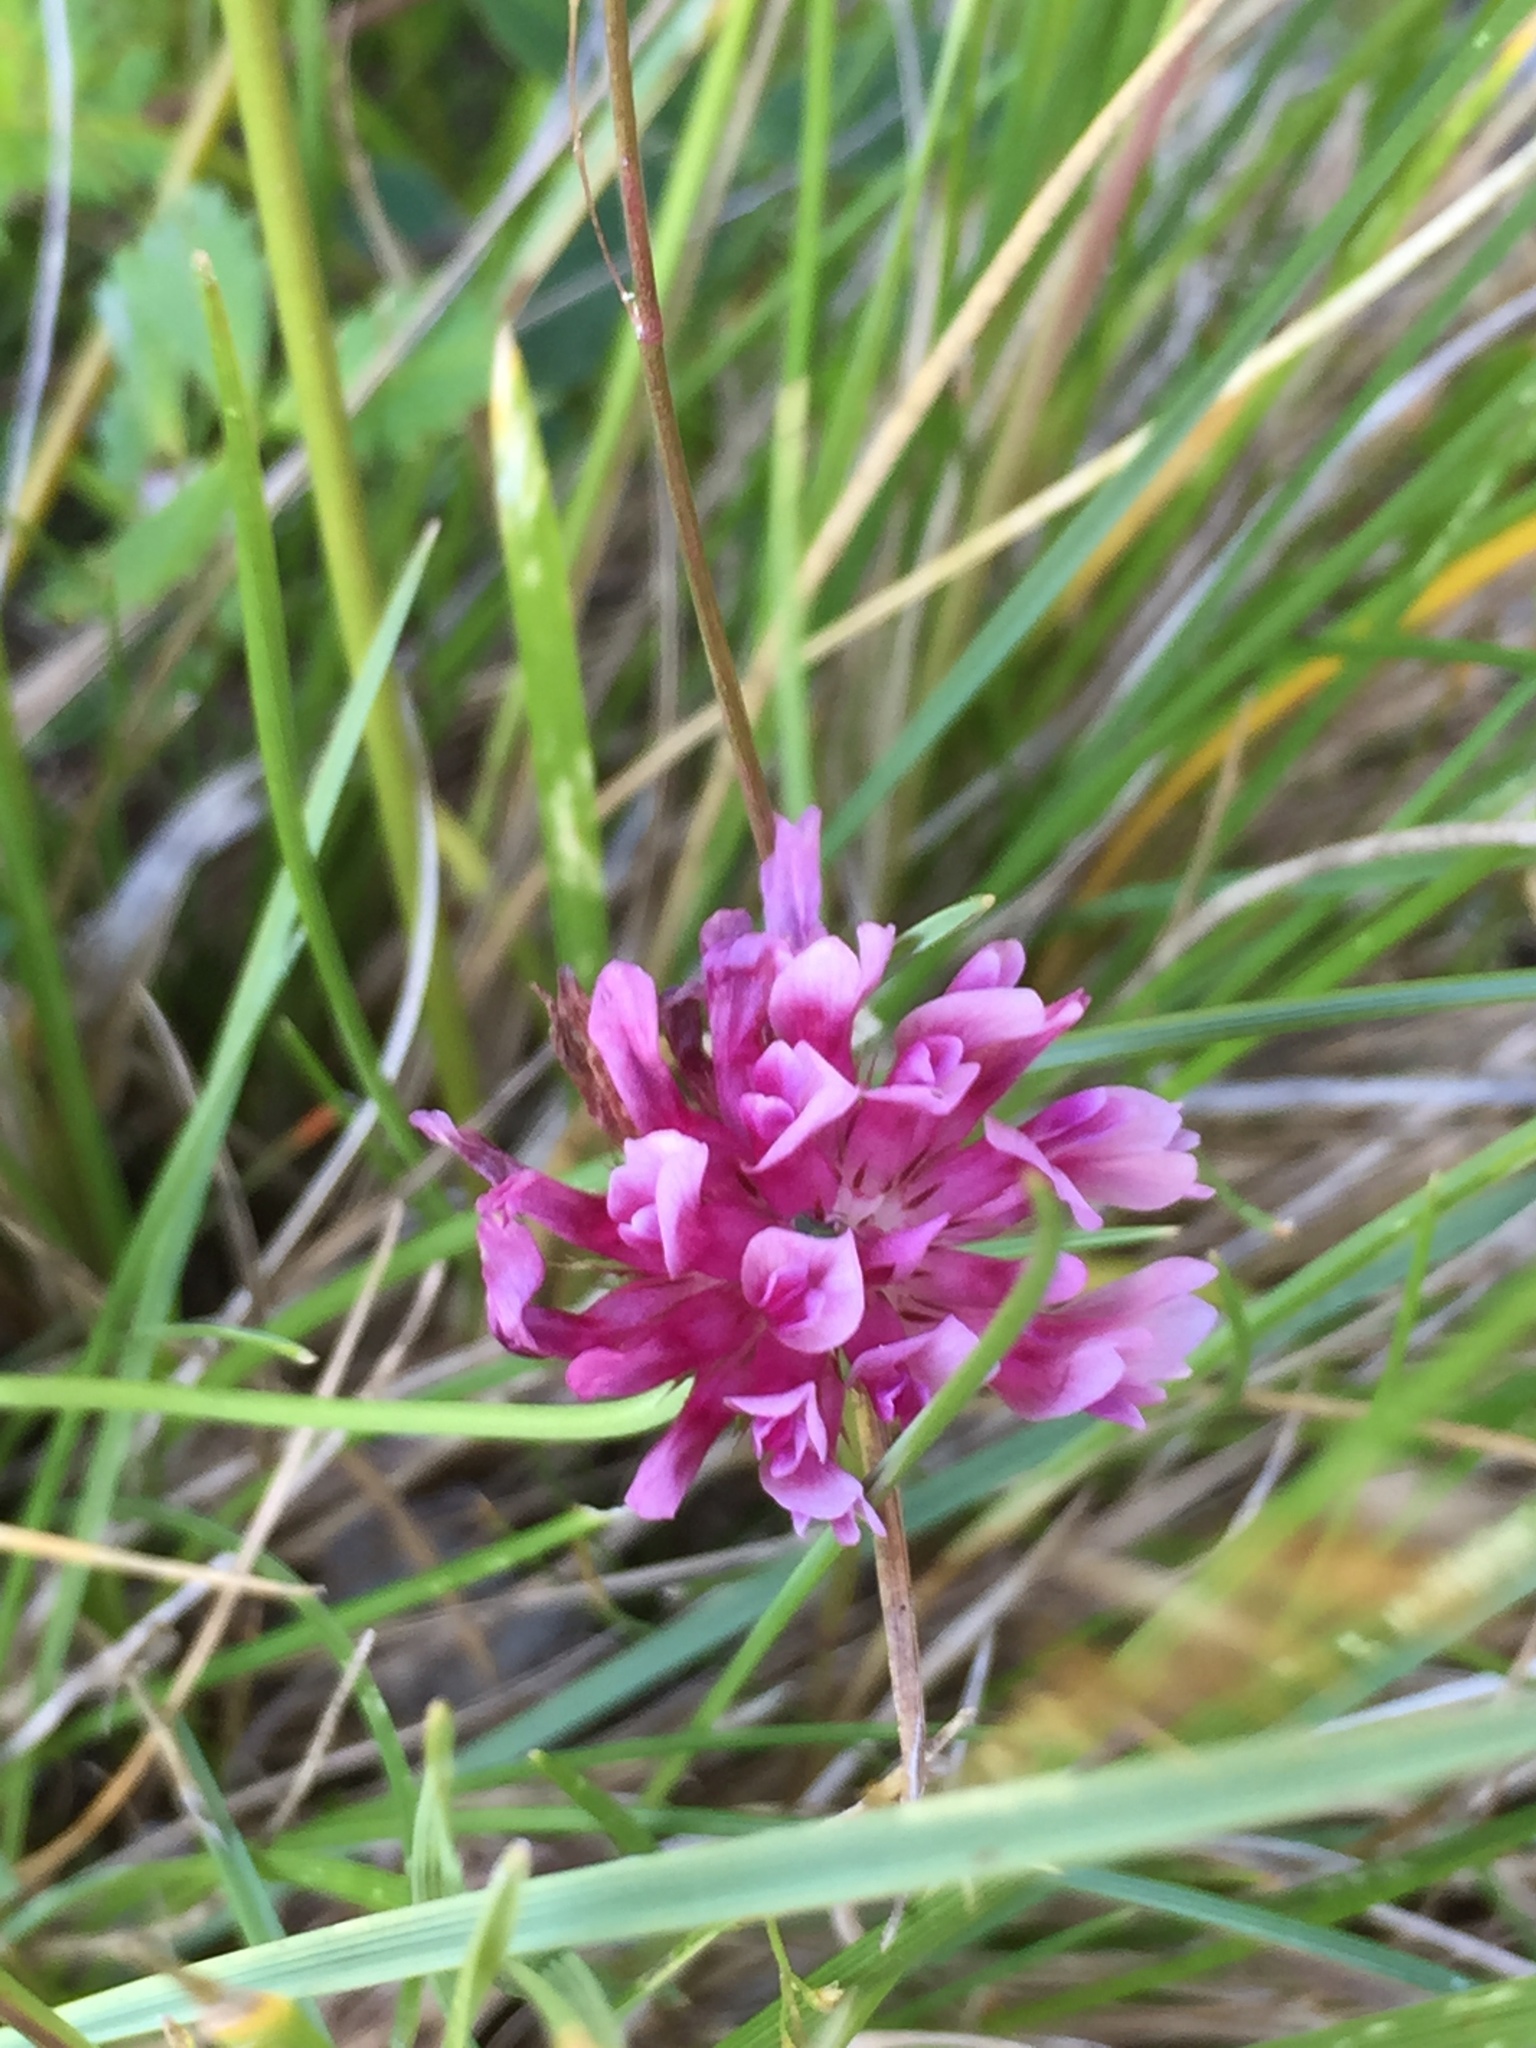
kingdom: Plantae
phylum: Tracheophyta
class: Magnoliopsida
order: Fabales
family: Fabaceae
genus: Trifolium
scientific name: Trifolium wormskioldii
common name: Springbank clover
